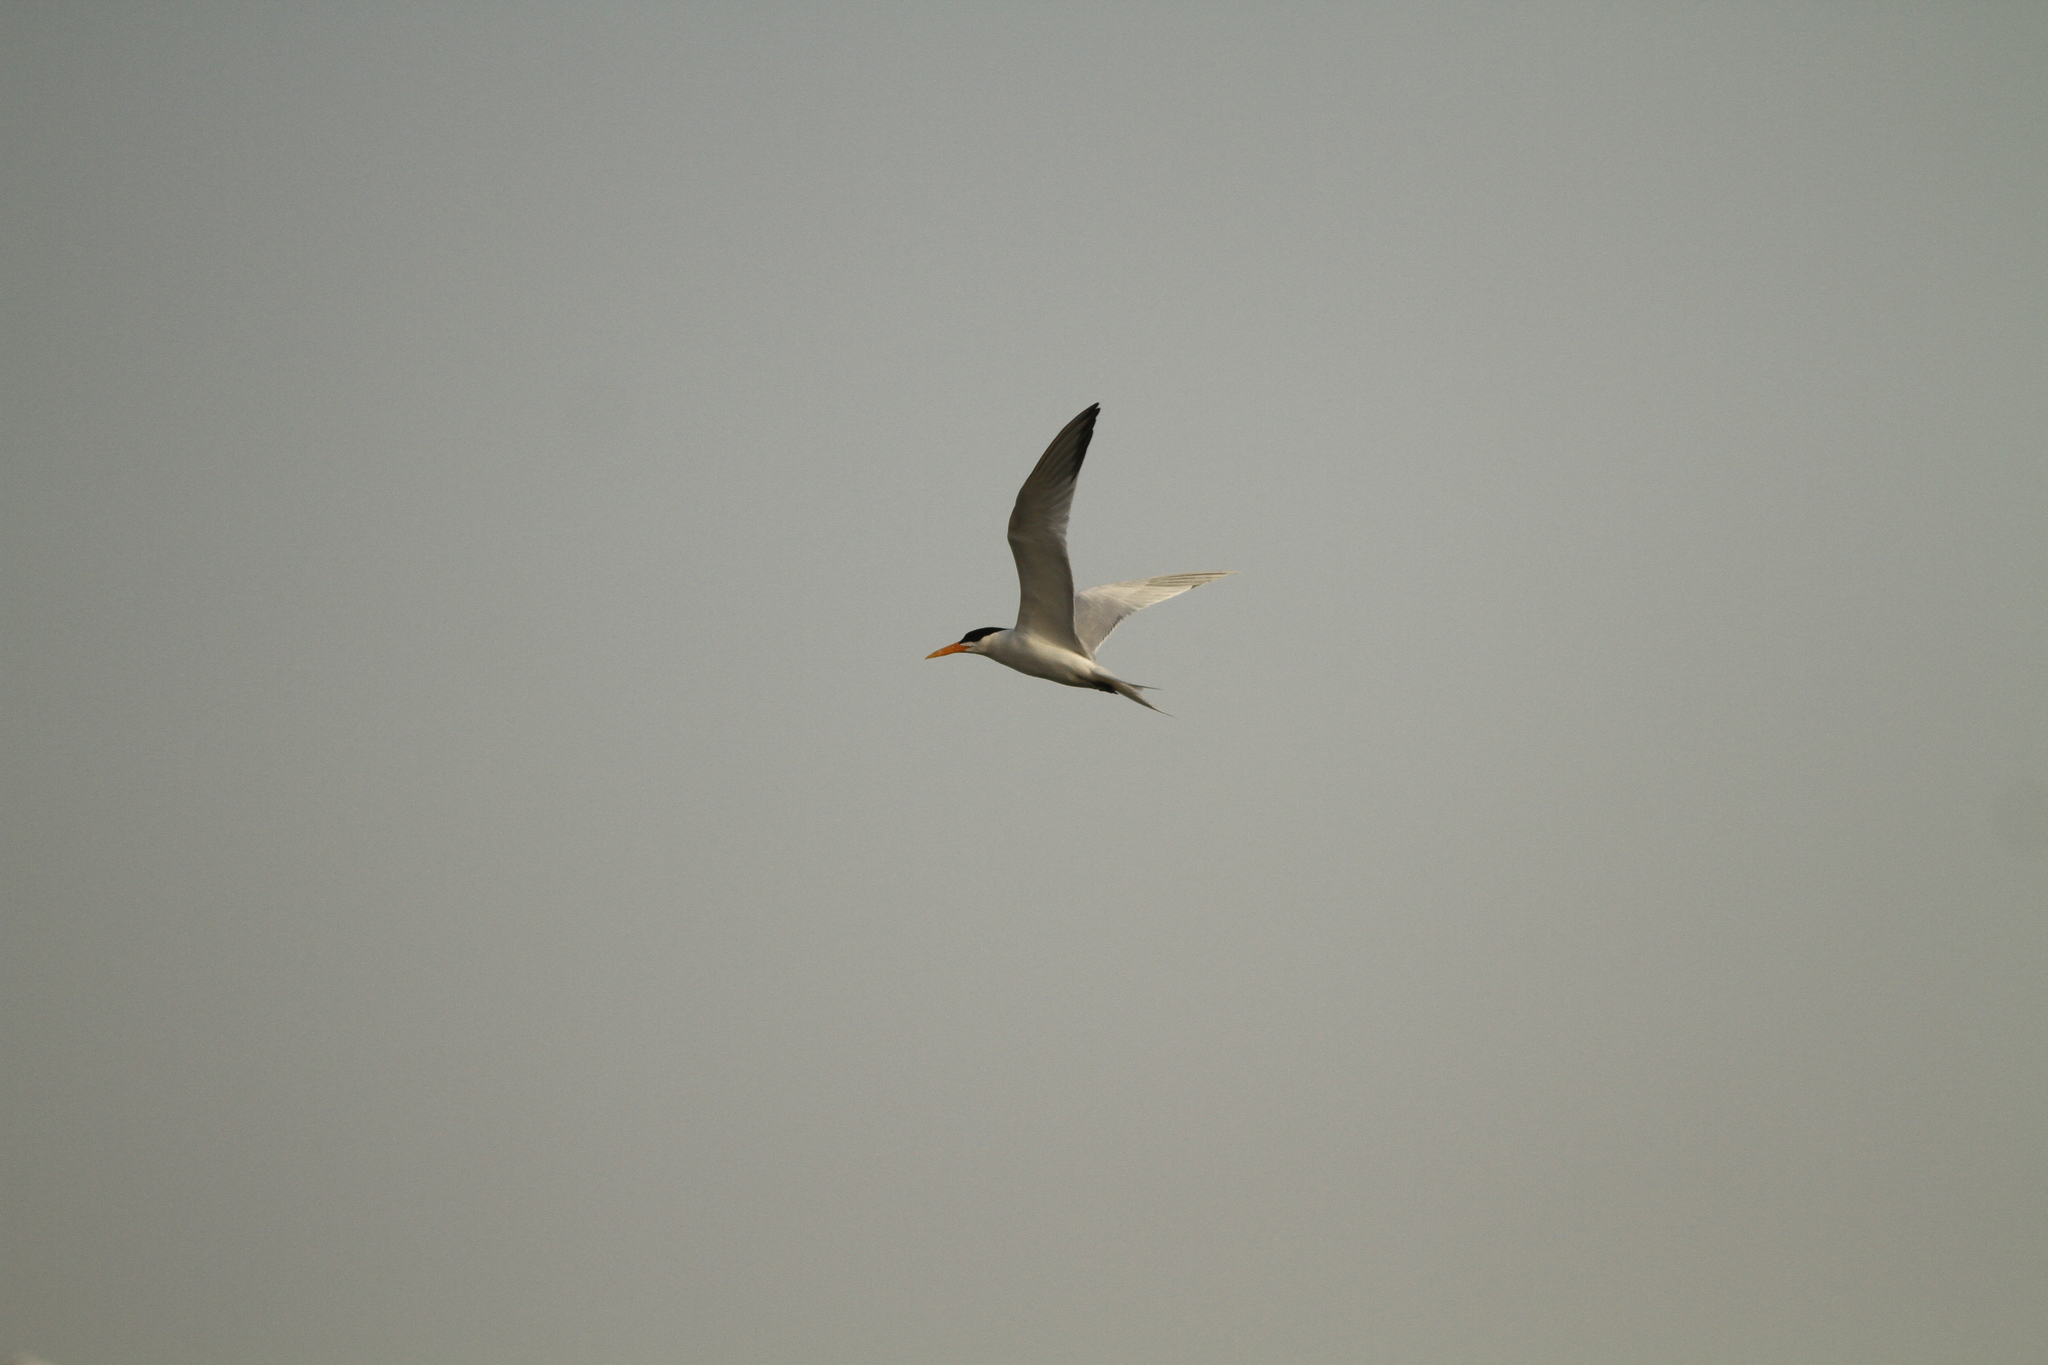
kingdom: Animalia
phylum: Chordata
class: Aves
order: Charadriiformes
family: Laridae
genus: Thalasseus
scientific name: Thalasseus albididorsalis
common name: West african crested tern
